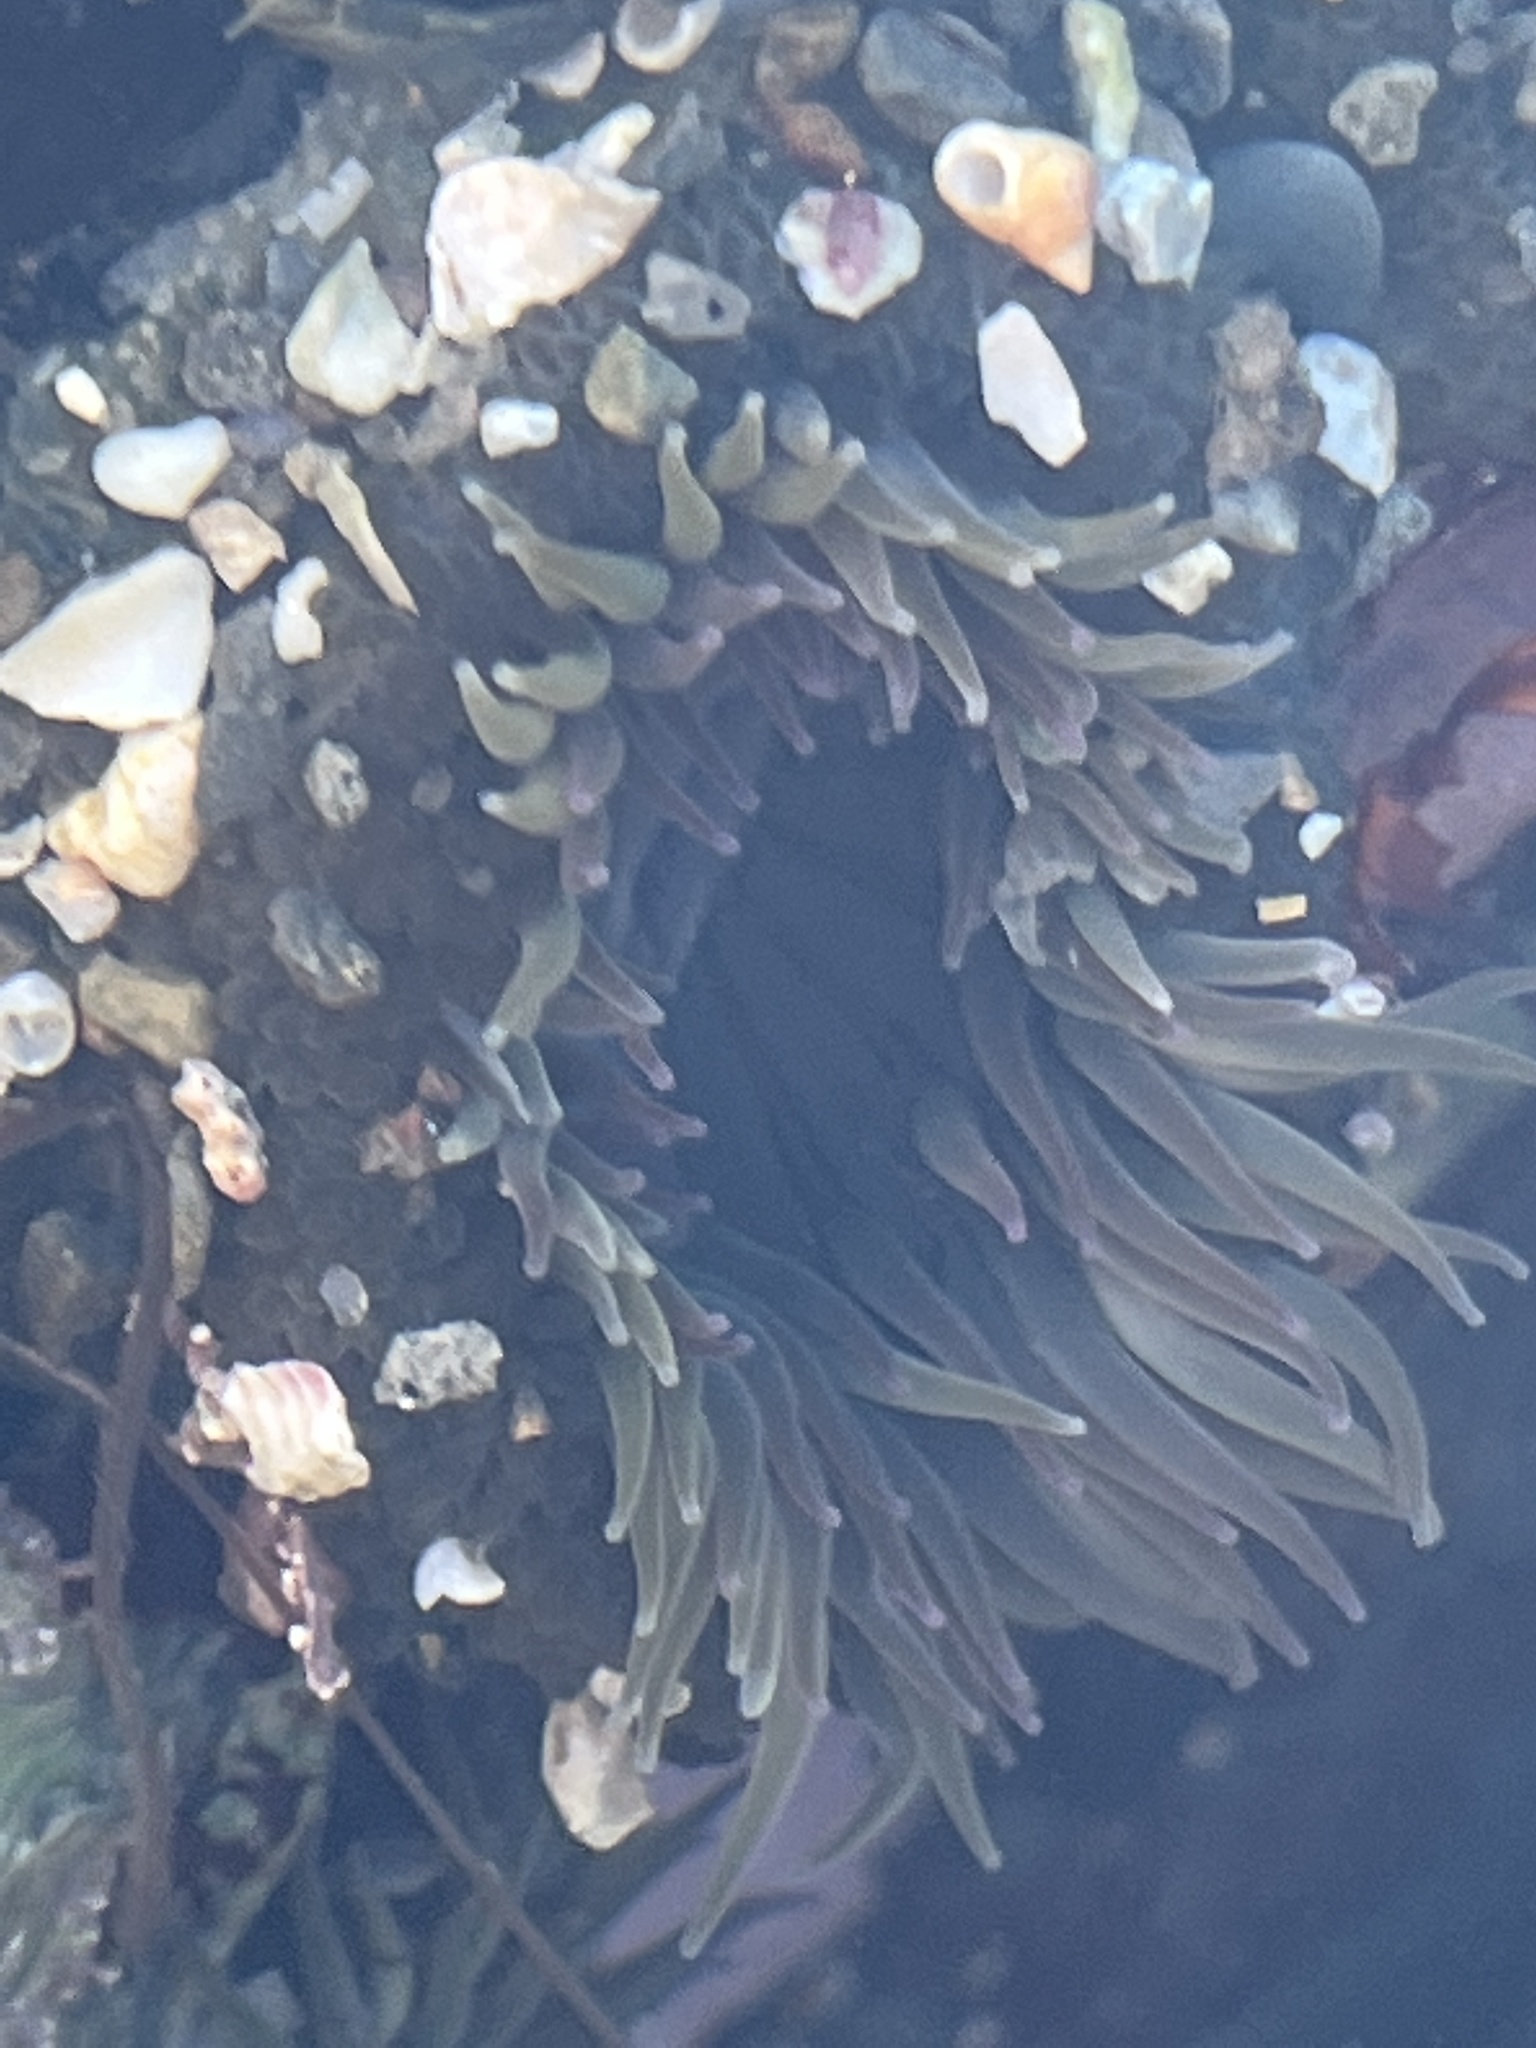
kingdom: Animalia
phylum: Cnidaria
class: Anthozoa
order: Actiniaria
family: Actiniidae
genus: Anthopleura
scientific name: Anthopleura elegantissima
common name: Clonal anemone
